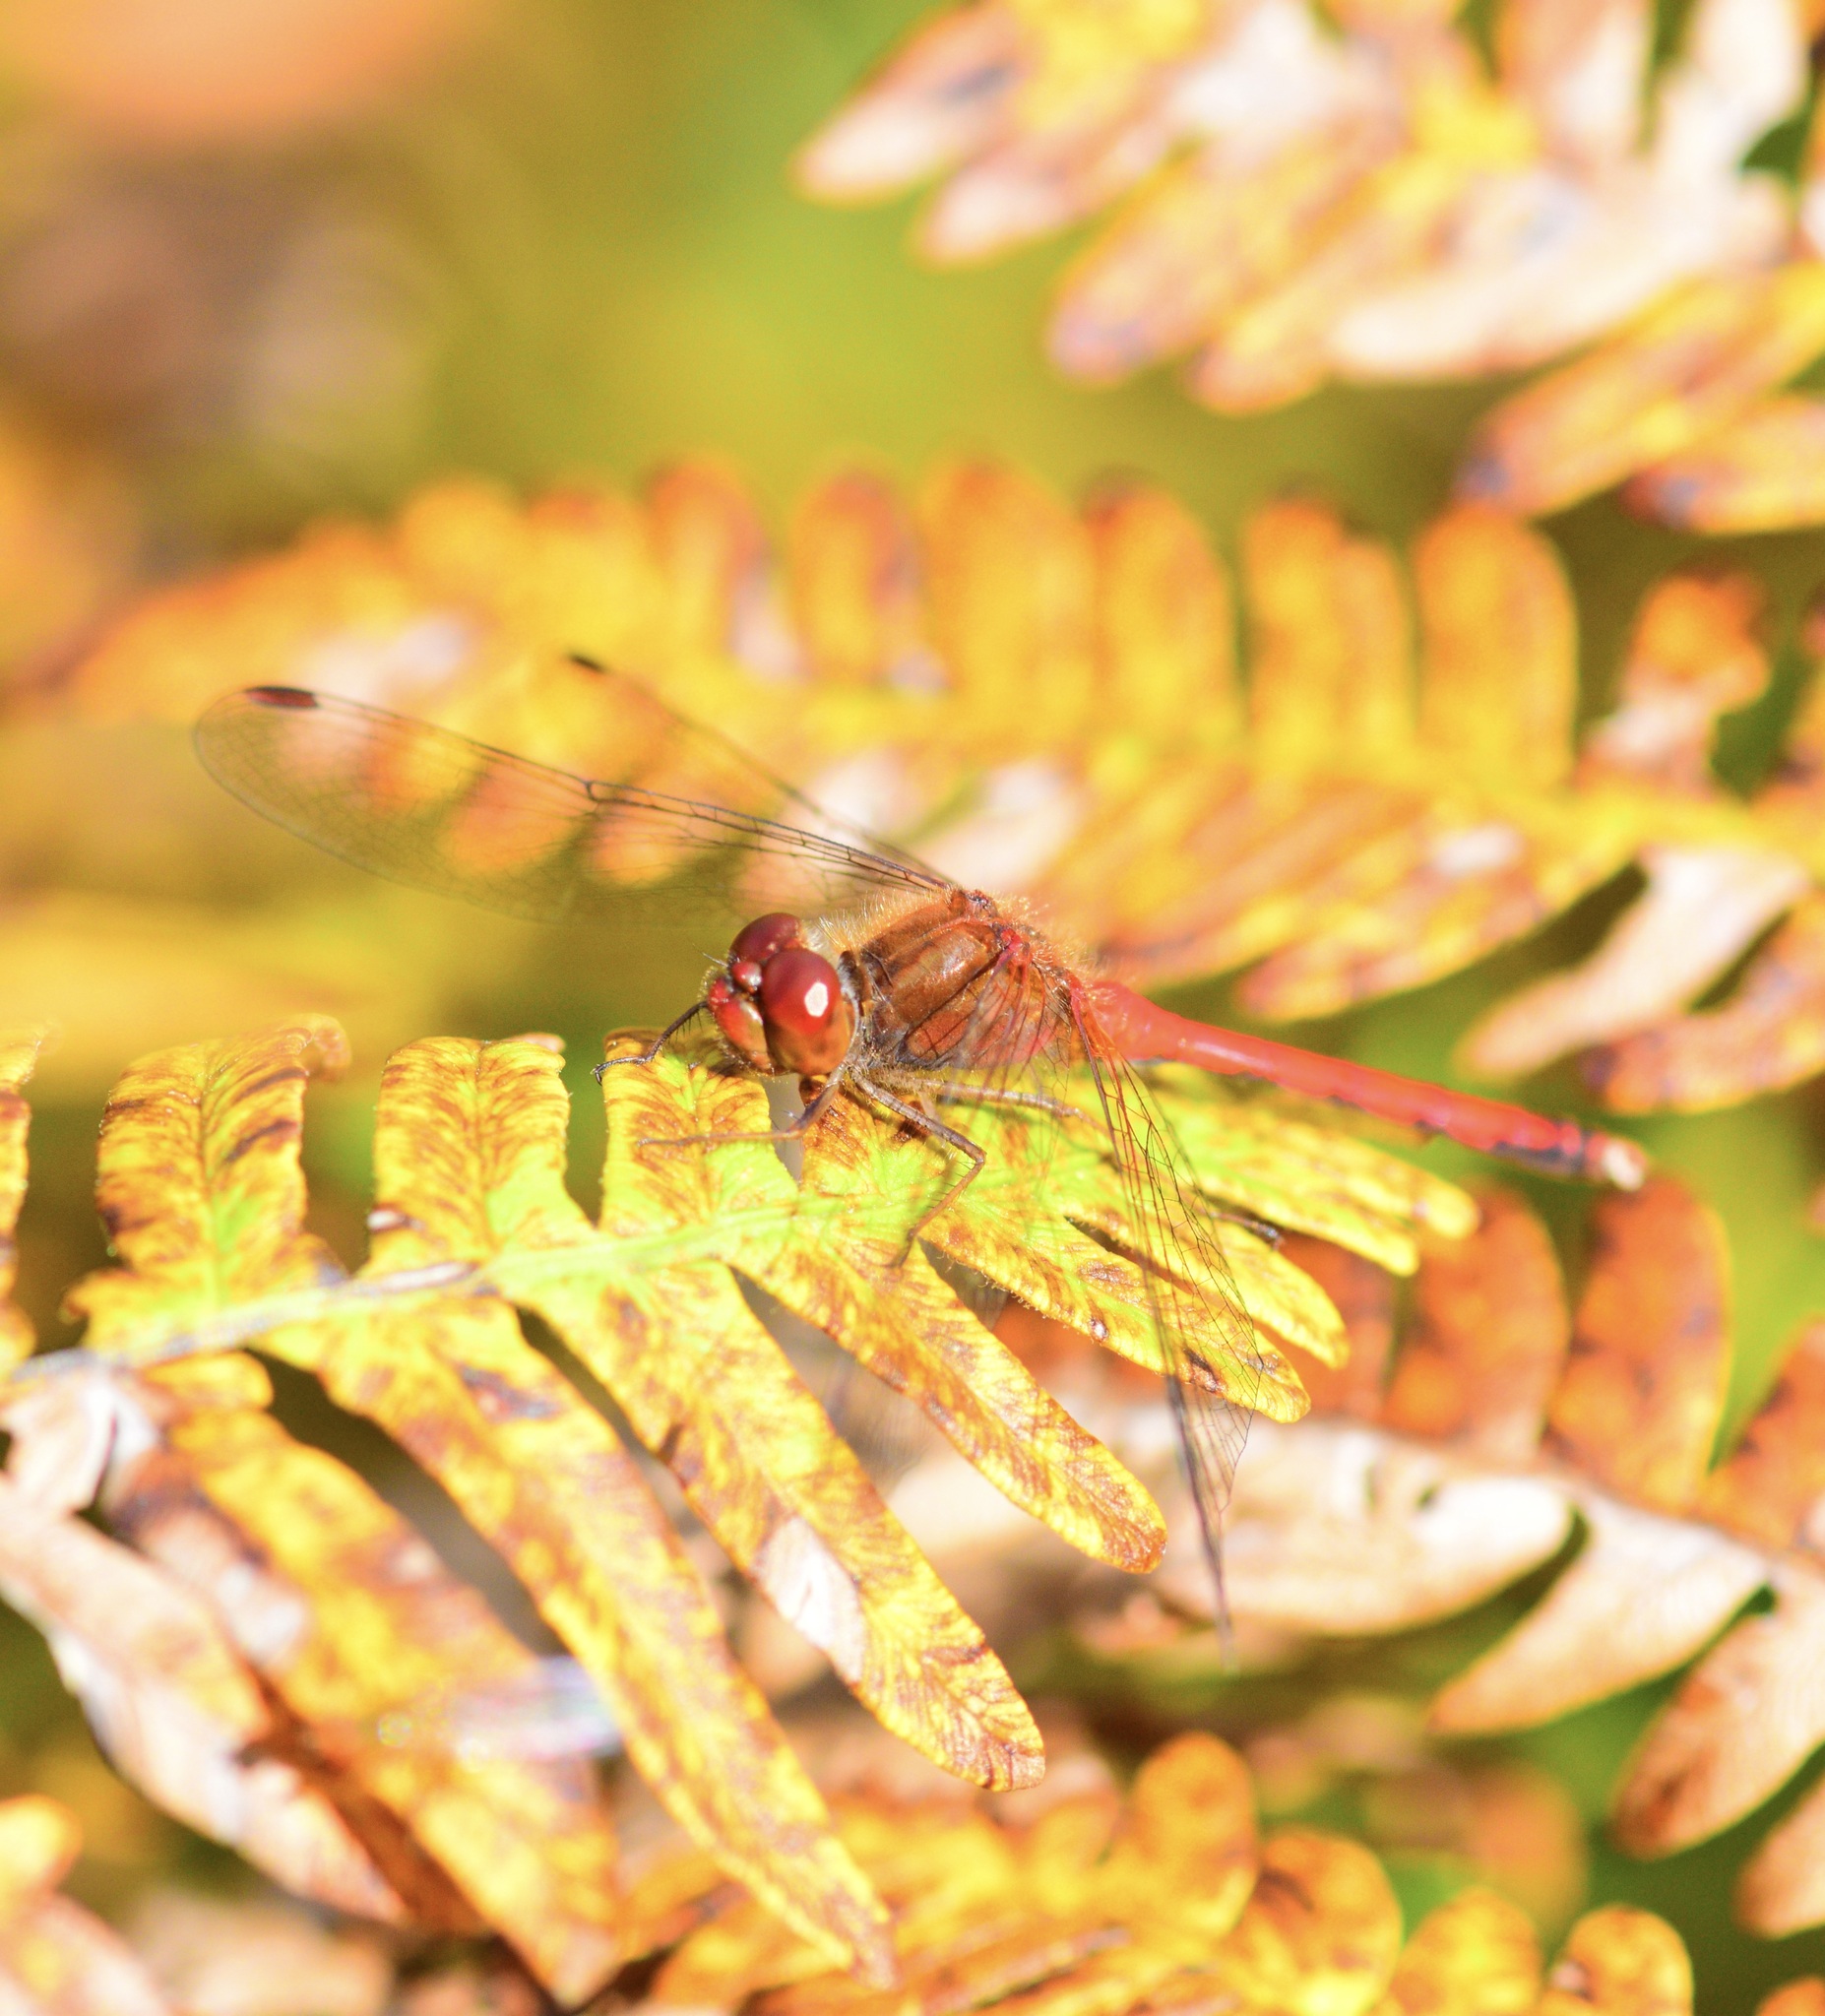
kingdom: Animalia
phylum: Arthropoda
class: Insecta
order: Odonata
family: Libellulidae
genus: Sympetrum
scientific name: Sympetrum vicinum
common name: Autumn meadowhawk
